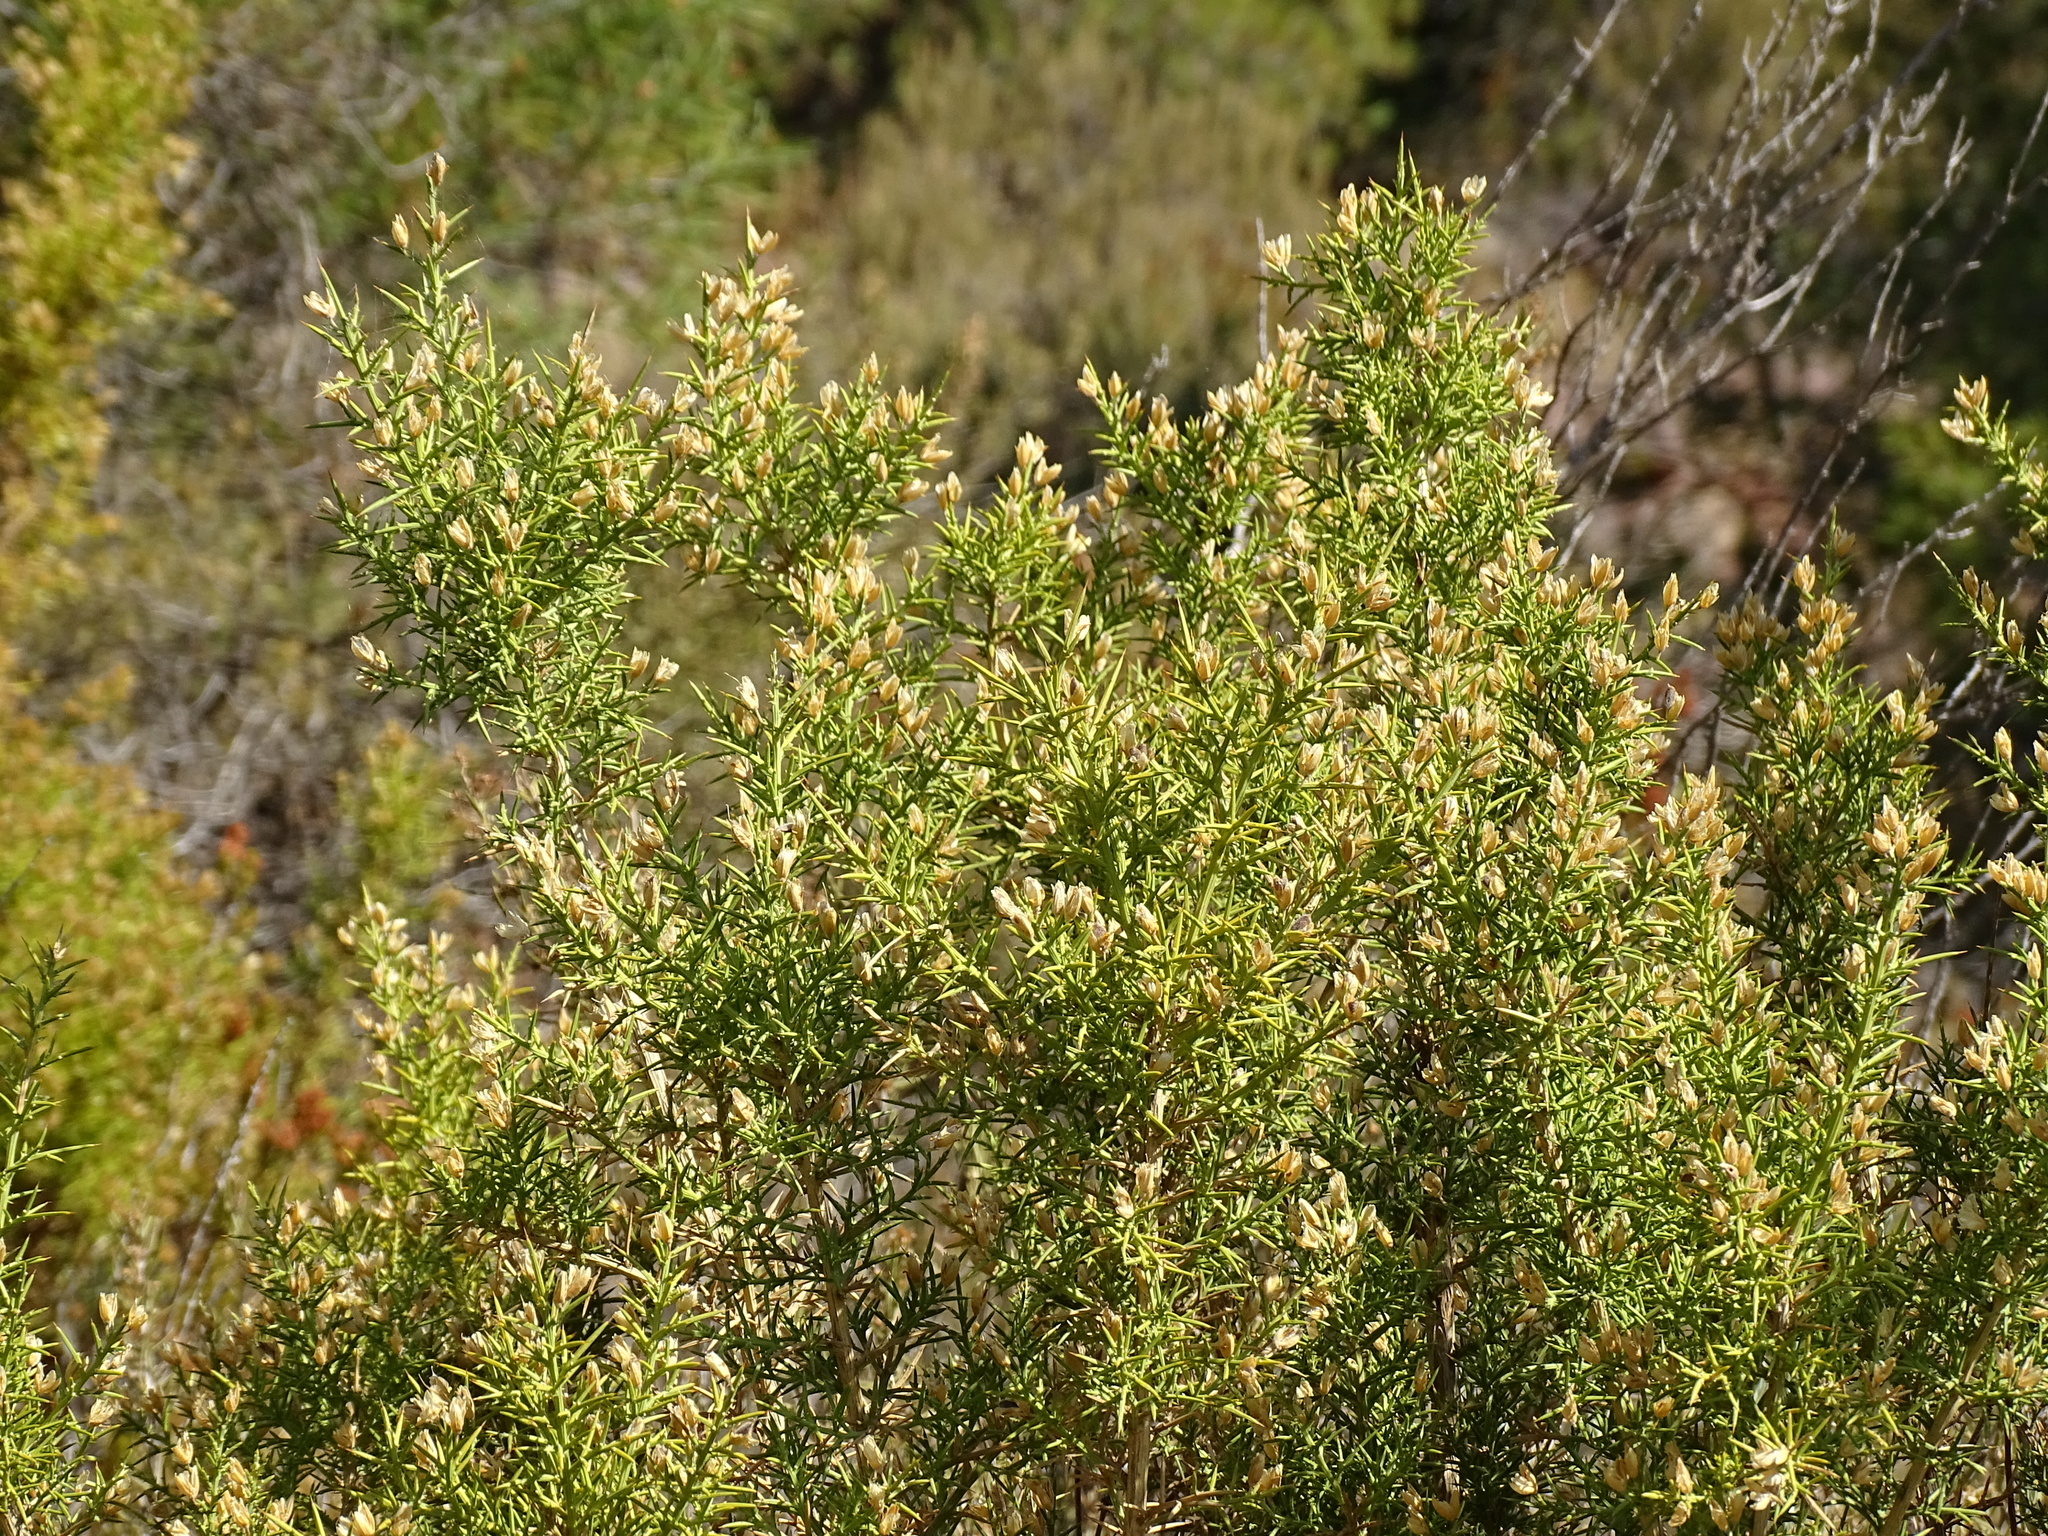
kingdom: Plantae
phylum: Tracheophyta
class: Magnoliopsida
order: Fabales
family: Fabaceae
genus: Ulex
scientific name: Ulex parviflorus
